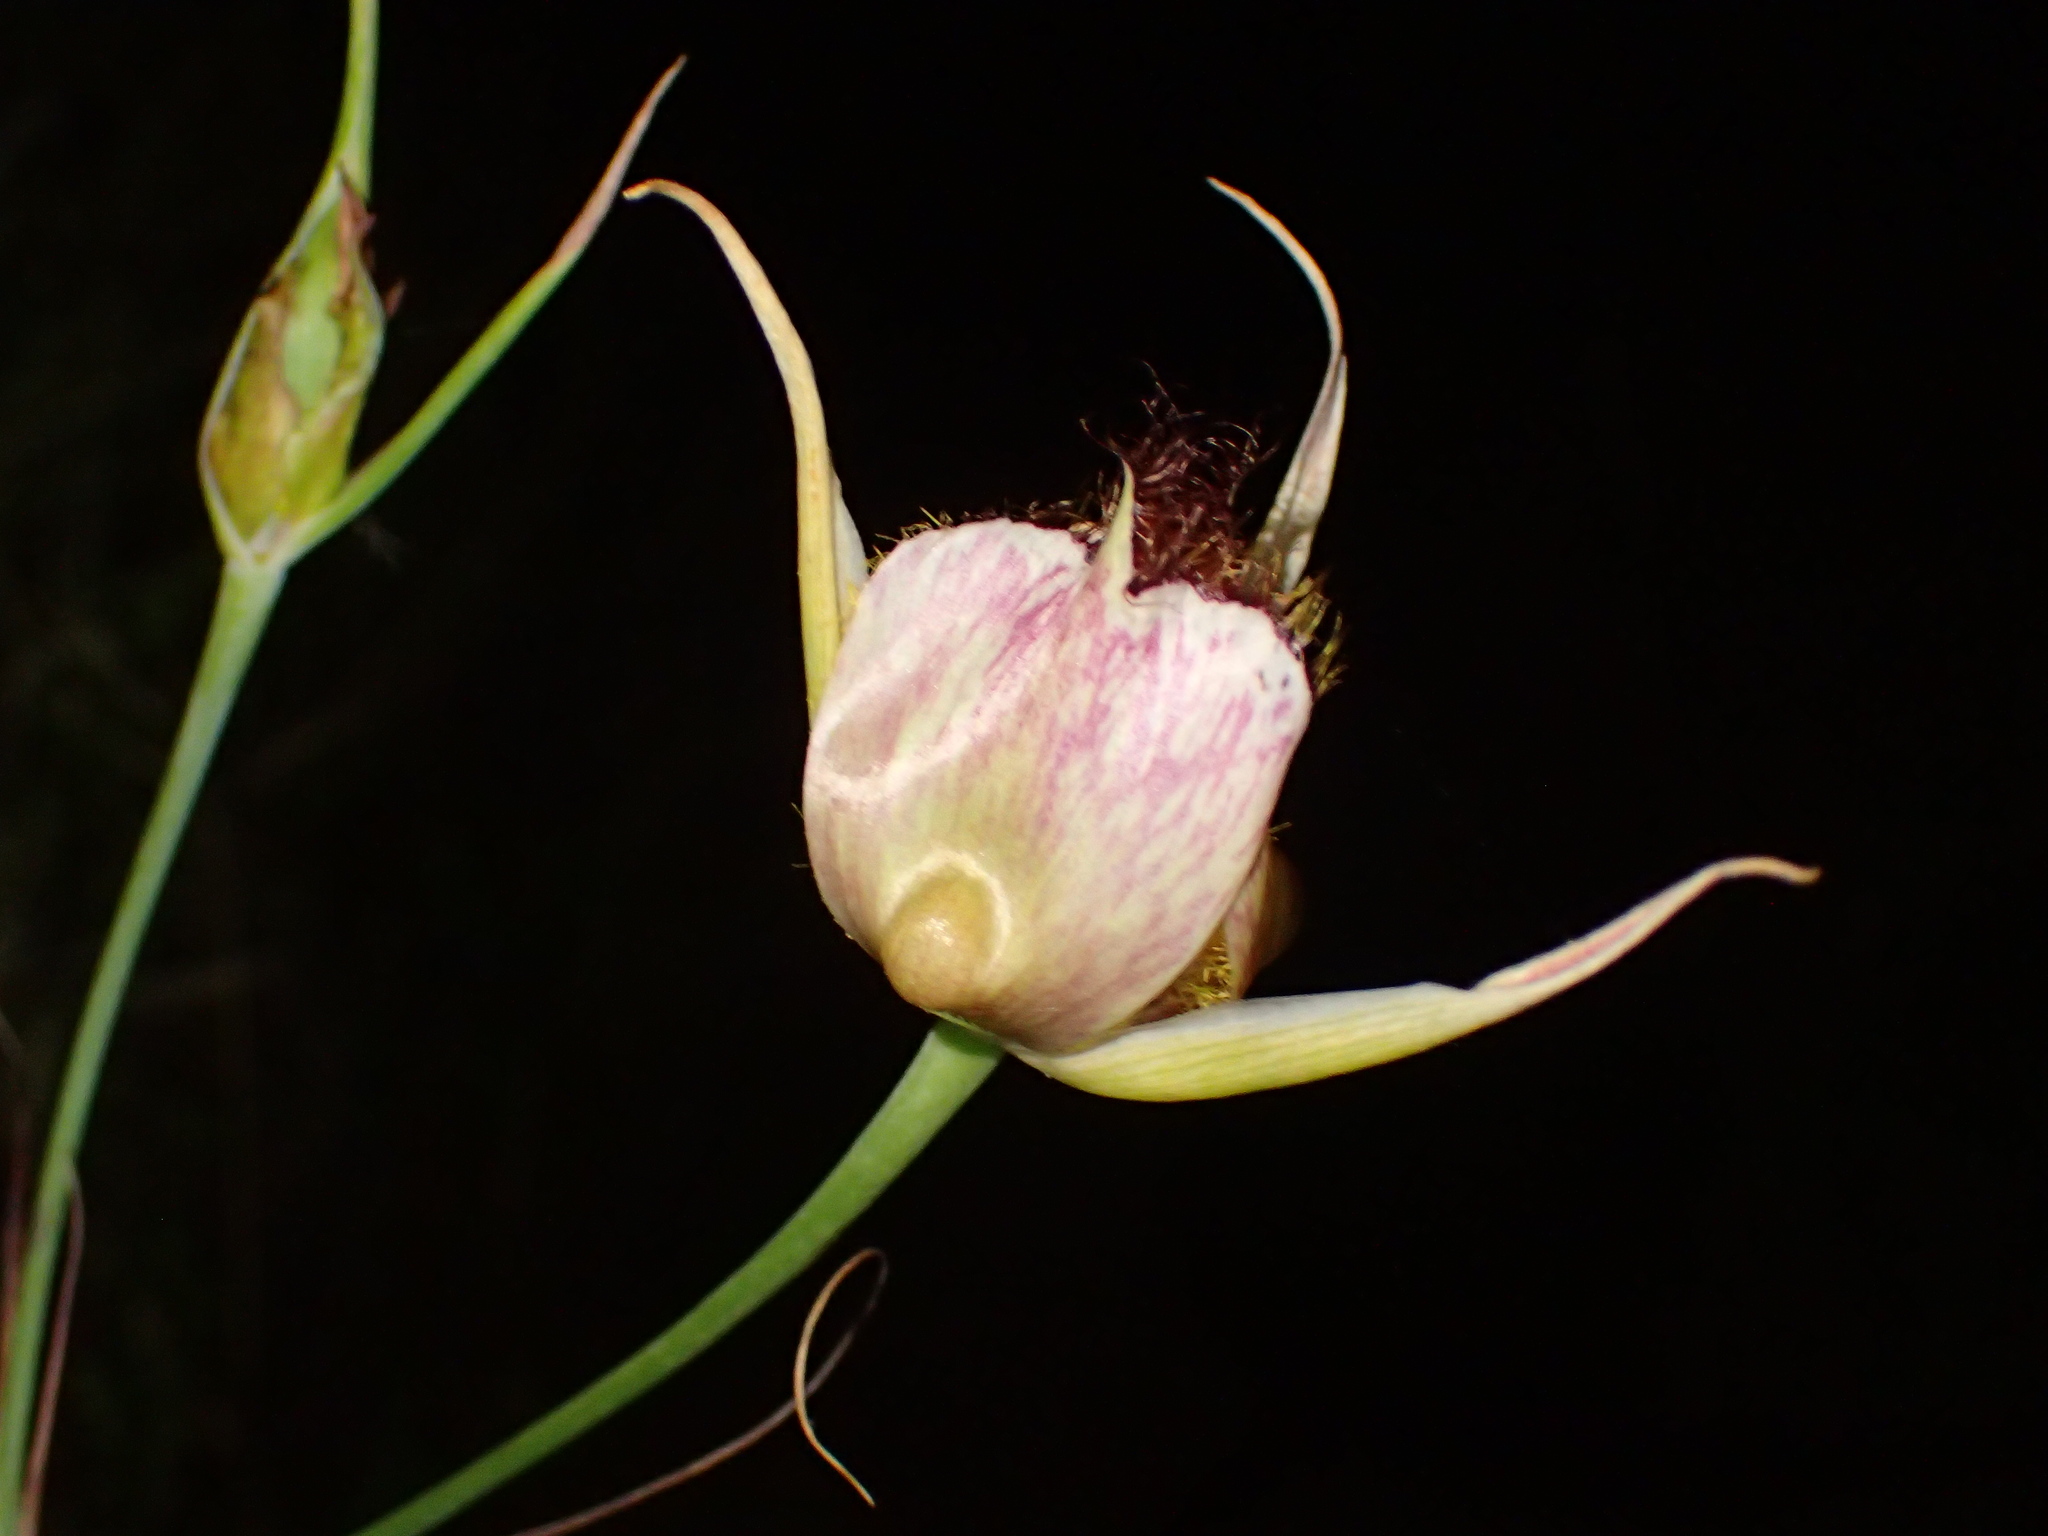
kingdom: Plantae
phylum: Tracheophyta
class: Liliopsida
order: Liliales
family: Liliaceae
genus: Calochortus
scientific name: Calochortus fimbriatus
